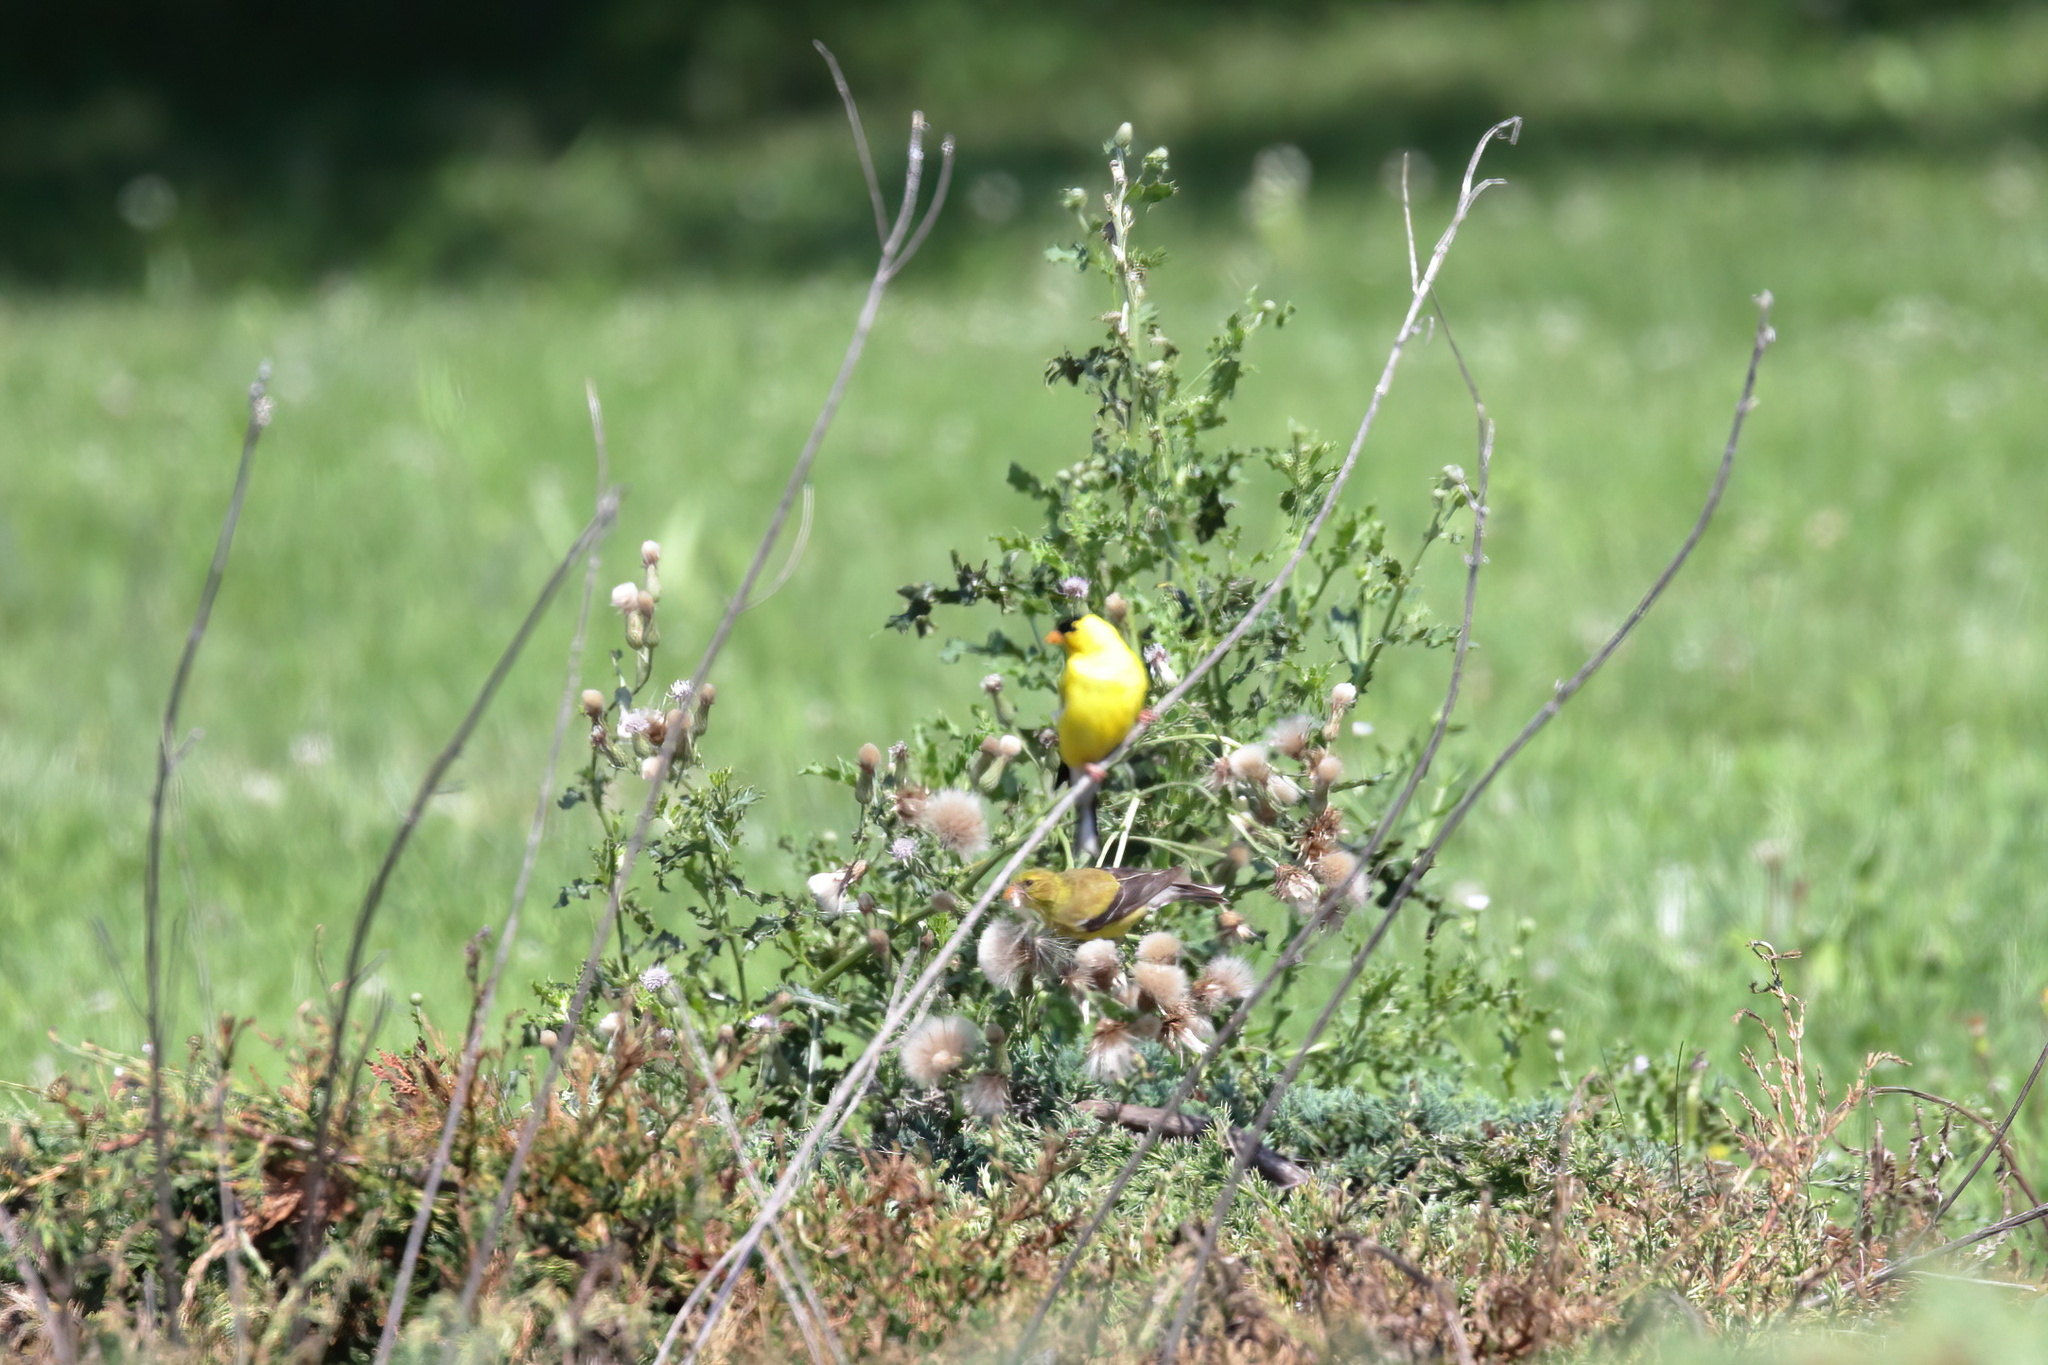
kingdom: Animalia
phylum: Chordata
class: Aves
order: Passeriformes
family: Fringillidae
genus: Spinus
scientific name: Spinus tristis
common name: American goldfinch
